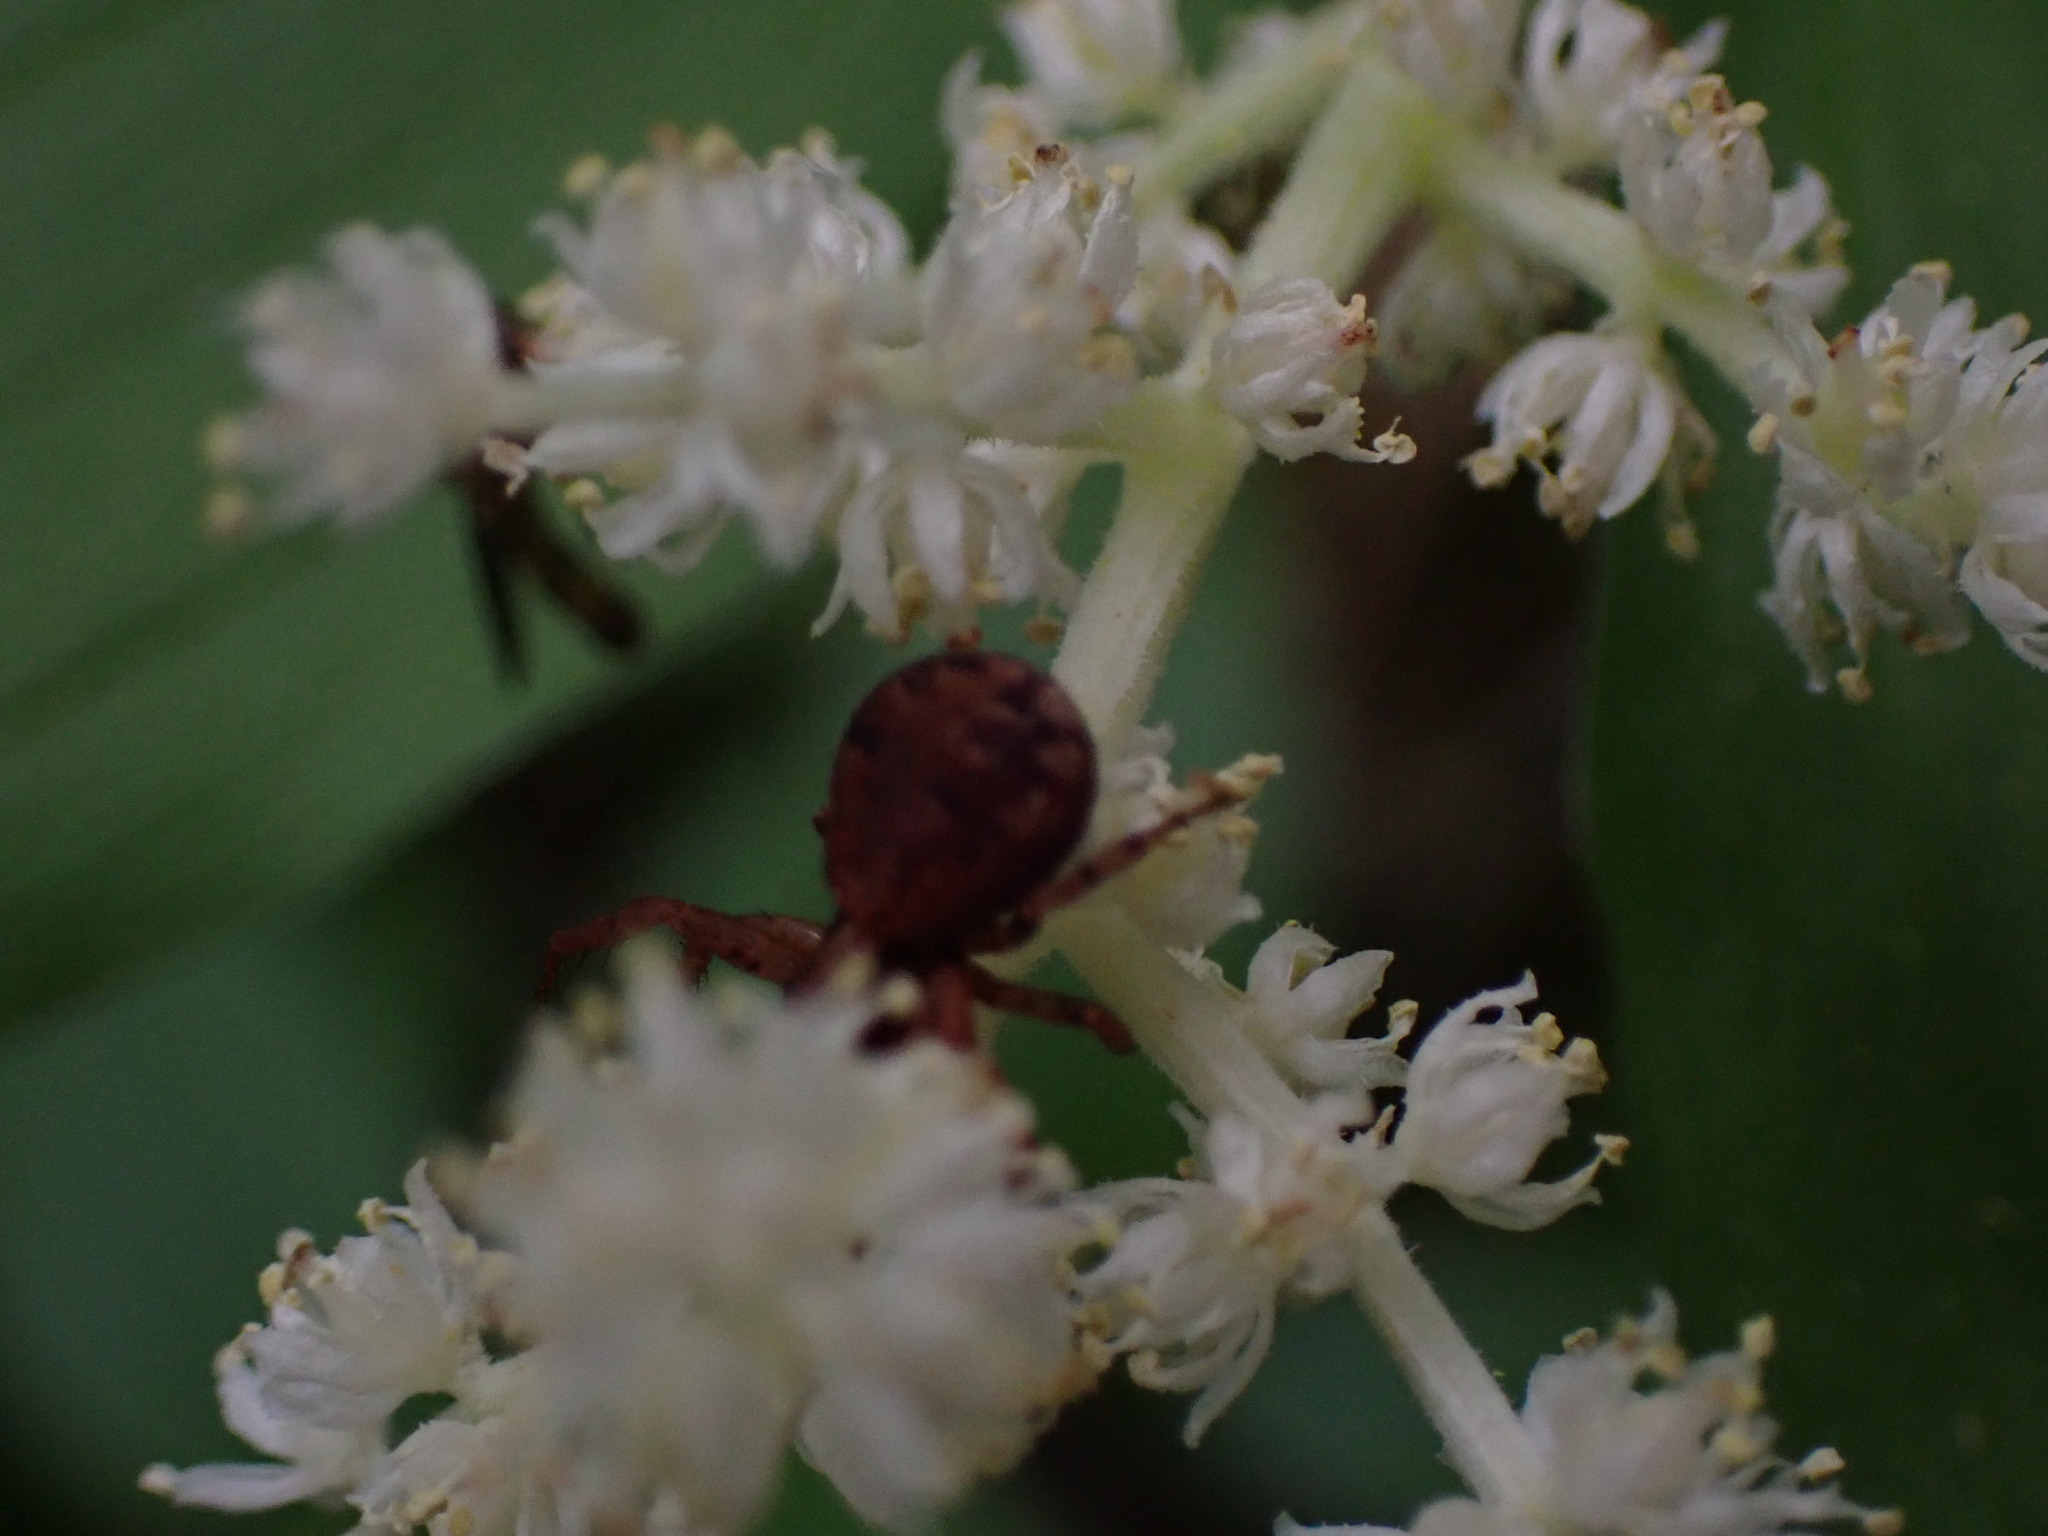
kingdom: Plantae
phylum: Tracheophyta
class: Liliopsida
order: Asparagales
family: Asparagaceae
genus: Maianthemum
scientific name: Maianthemum racemosum
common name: False spikenard
